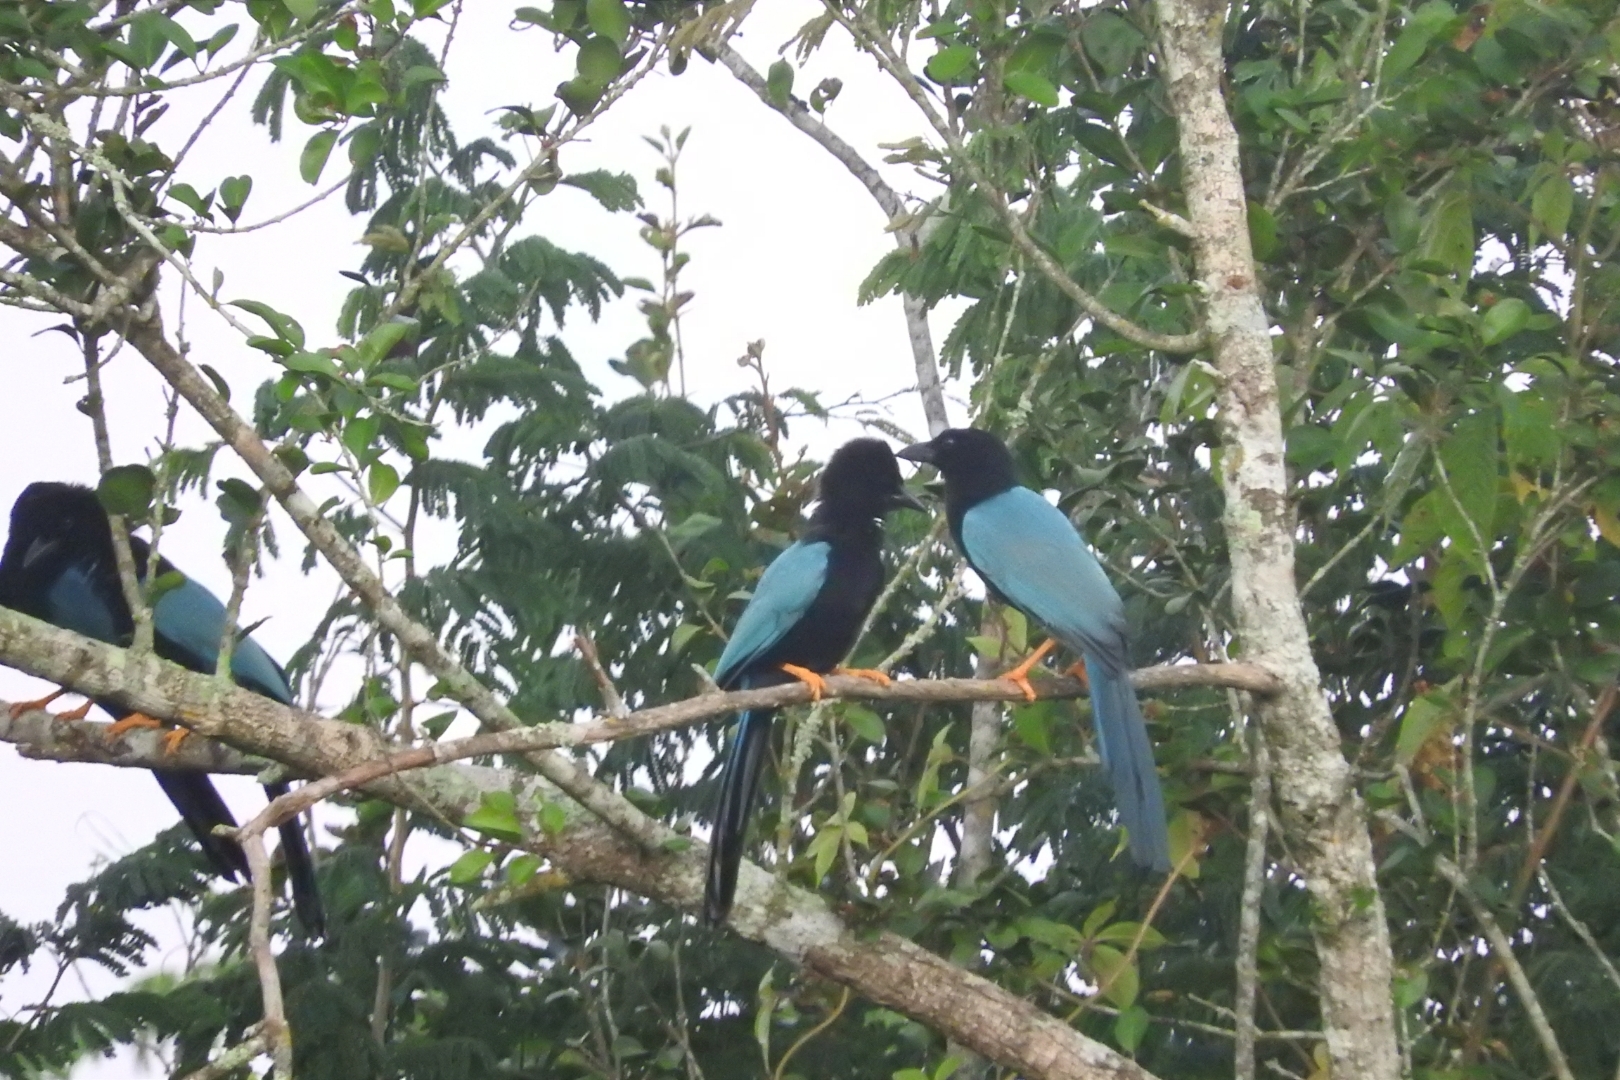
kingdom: Animalia
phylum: Chordata
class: Aves
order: Passeriformes
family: Corvidae
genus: Cyanocorax
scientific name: Cyanocorax yucatanicus
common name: Yucatan jay
